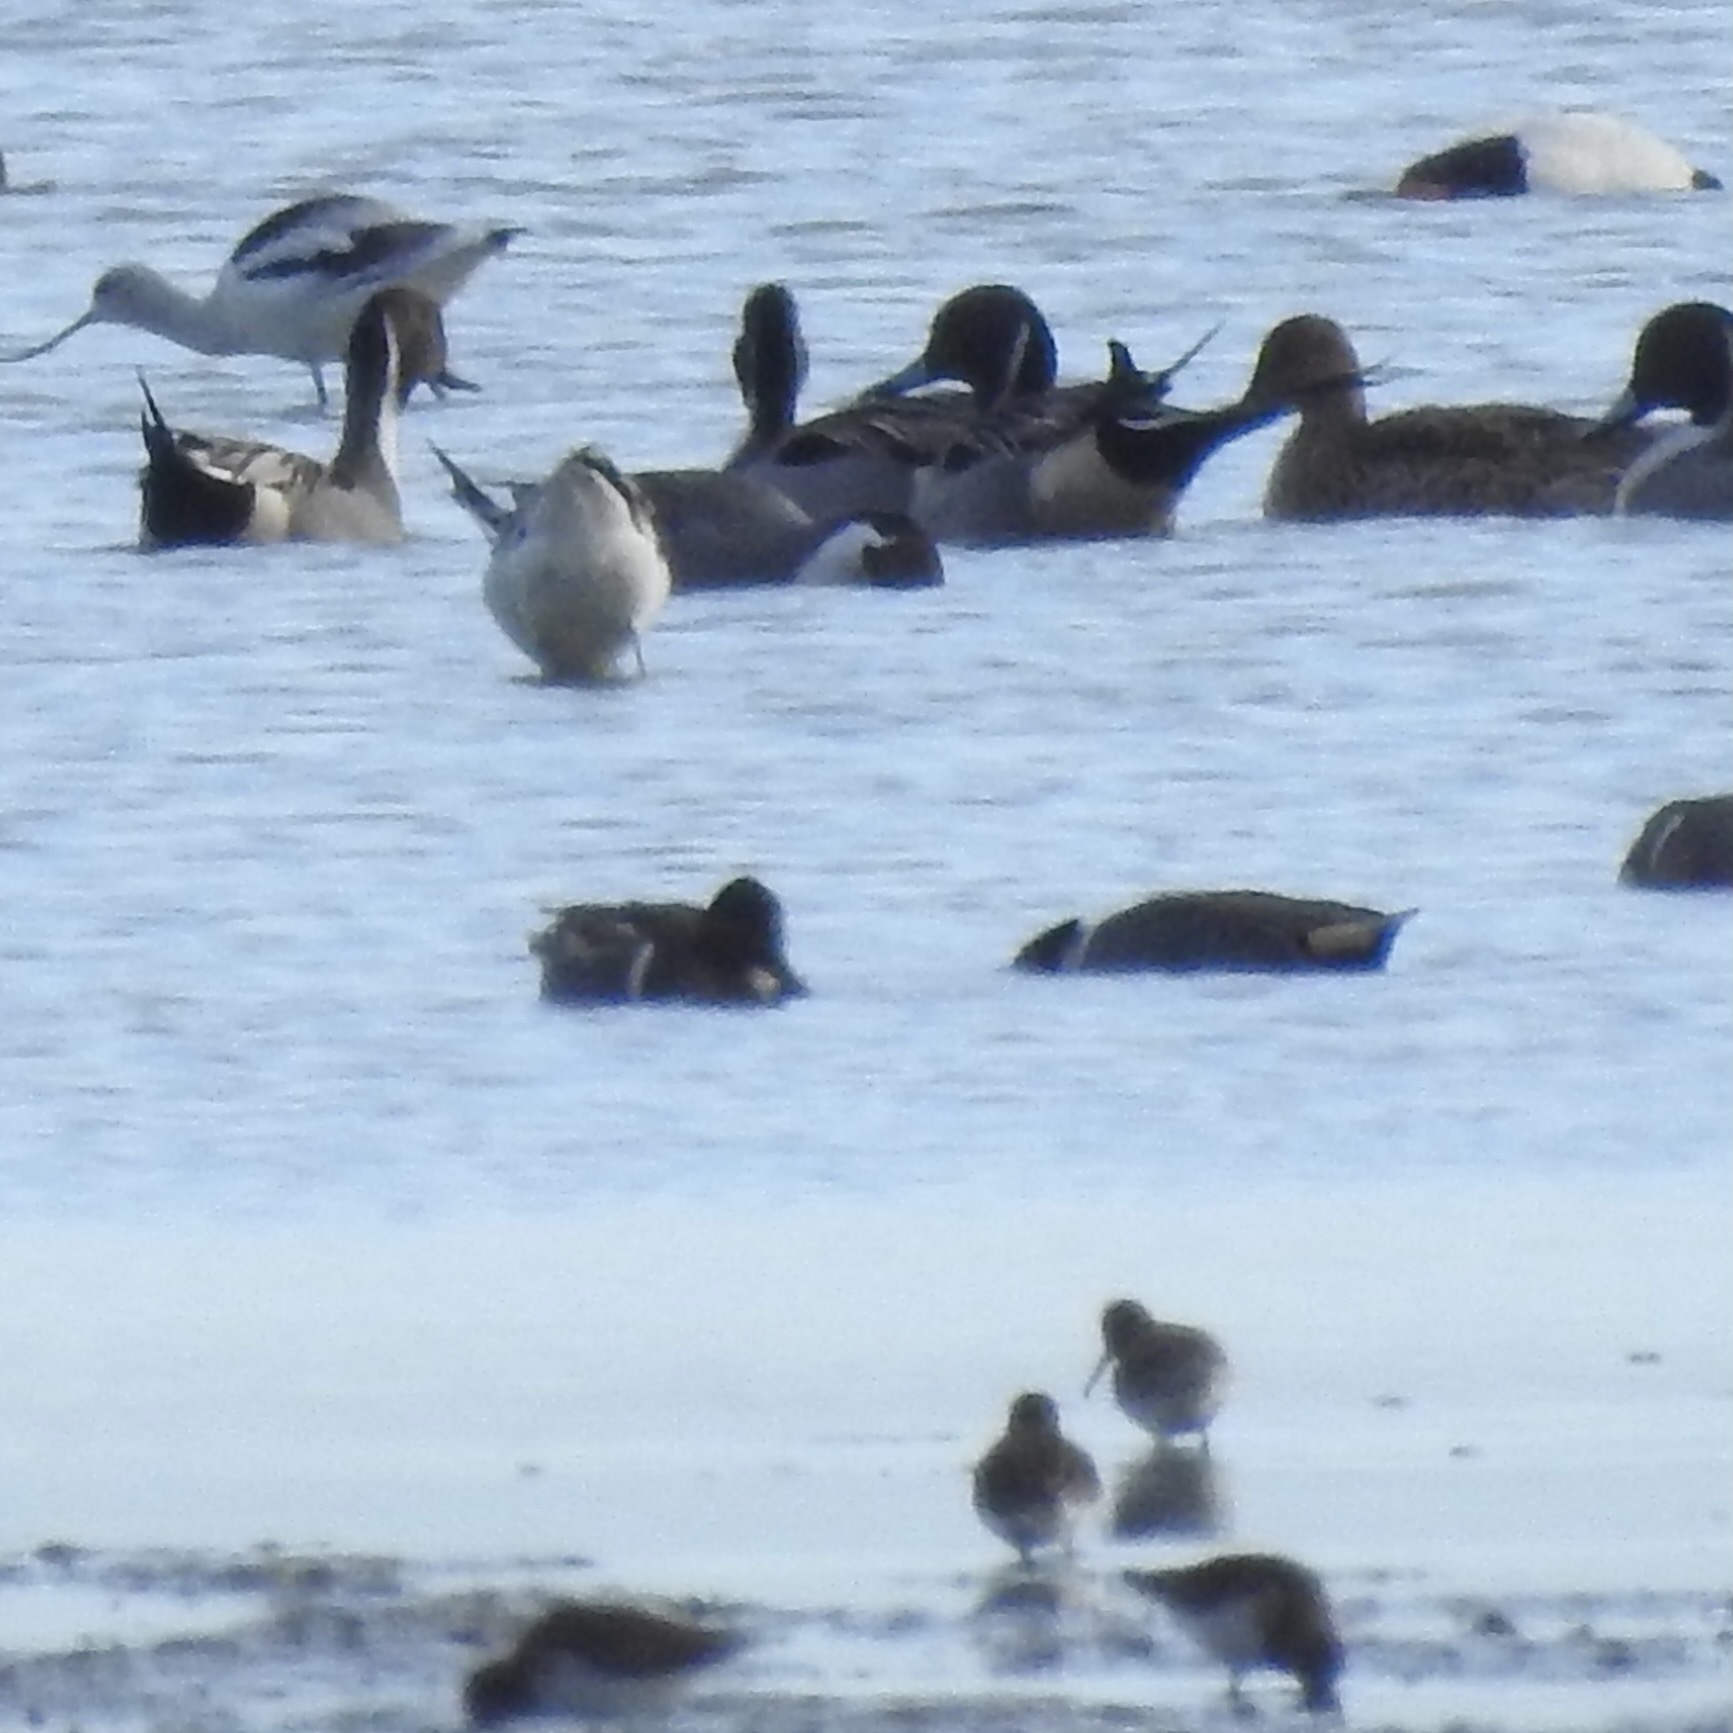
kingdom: Animalia
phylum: Chordata
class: Aves
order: Anseriformes
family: Anatidae
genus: Anas
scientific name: Anas acuta
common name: Northern pintail
